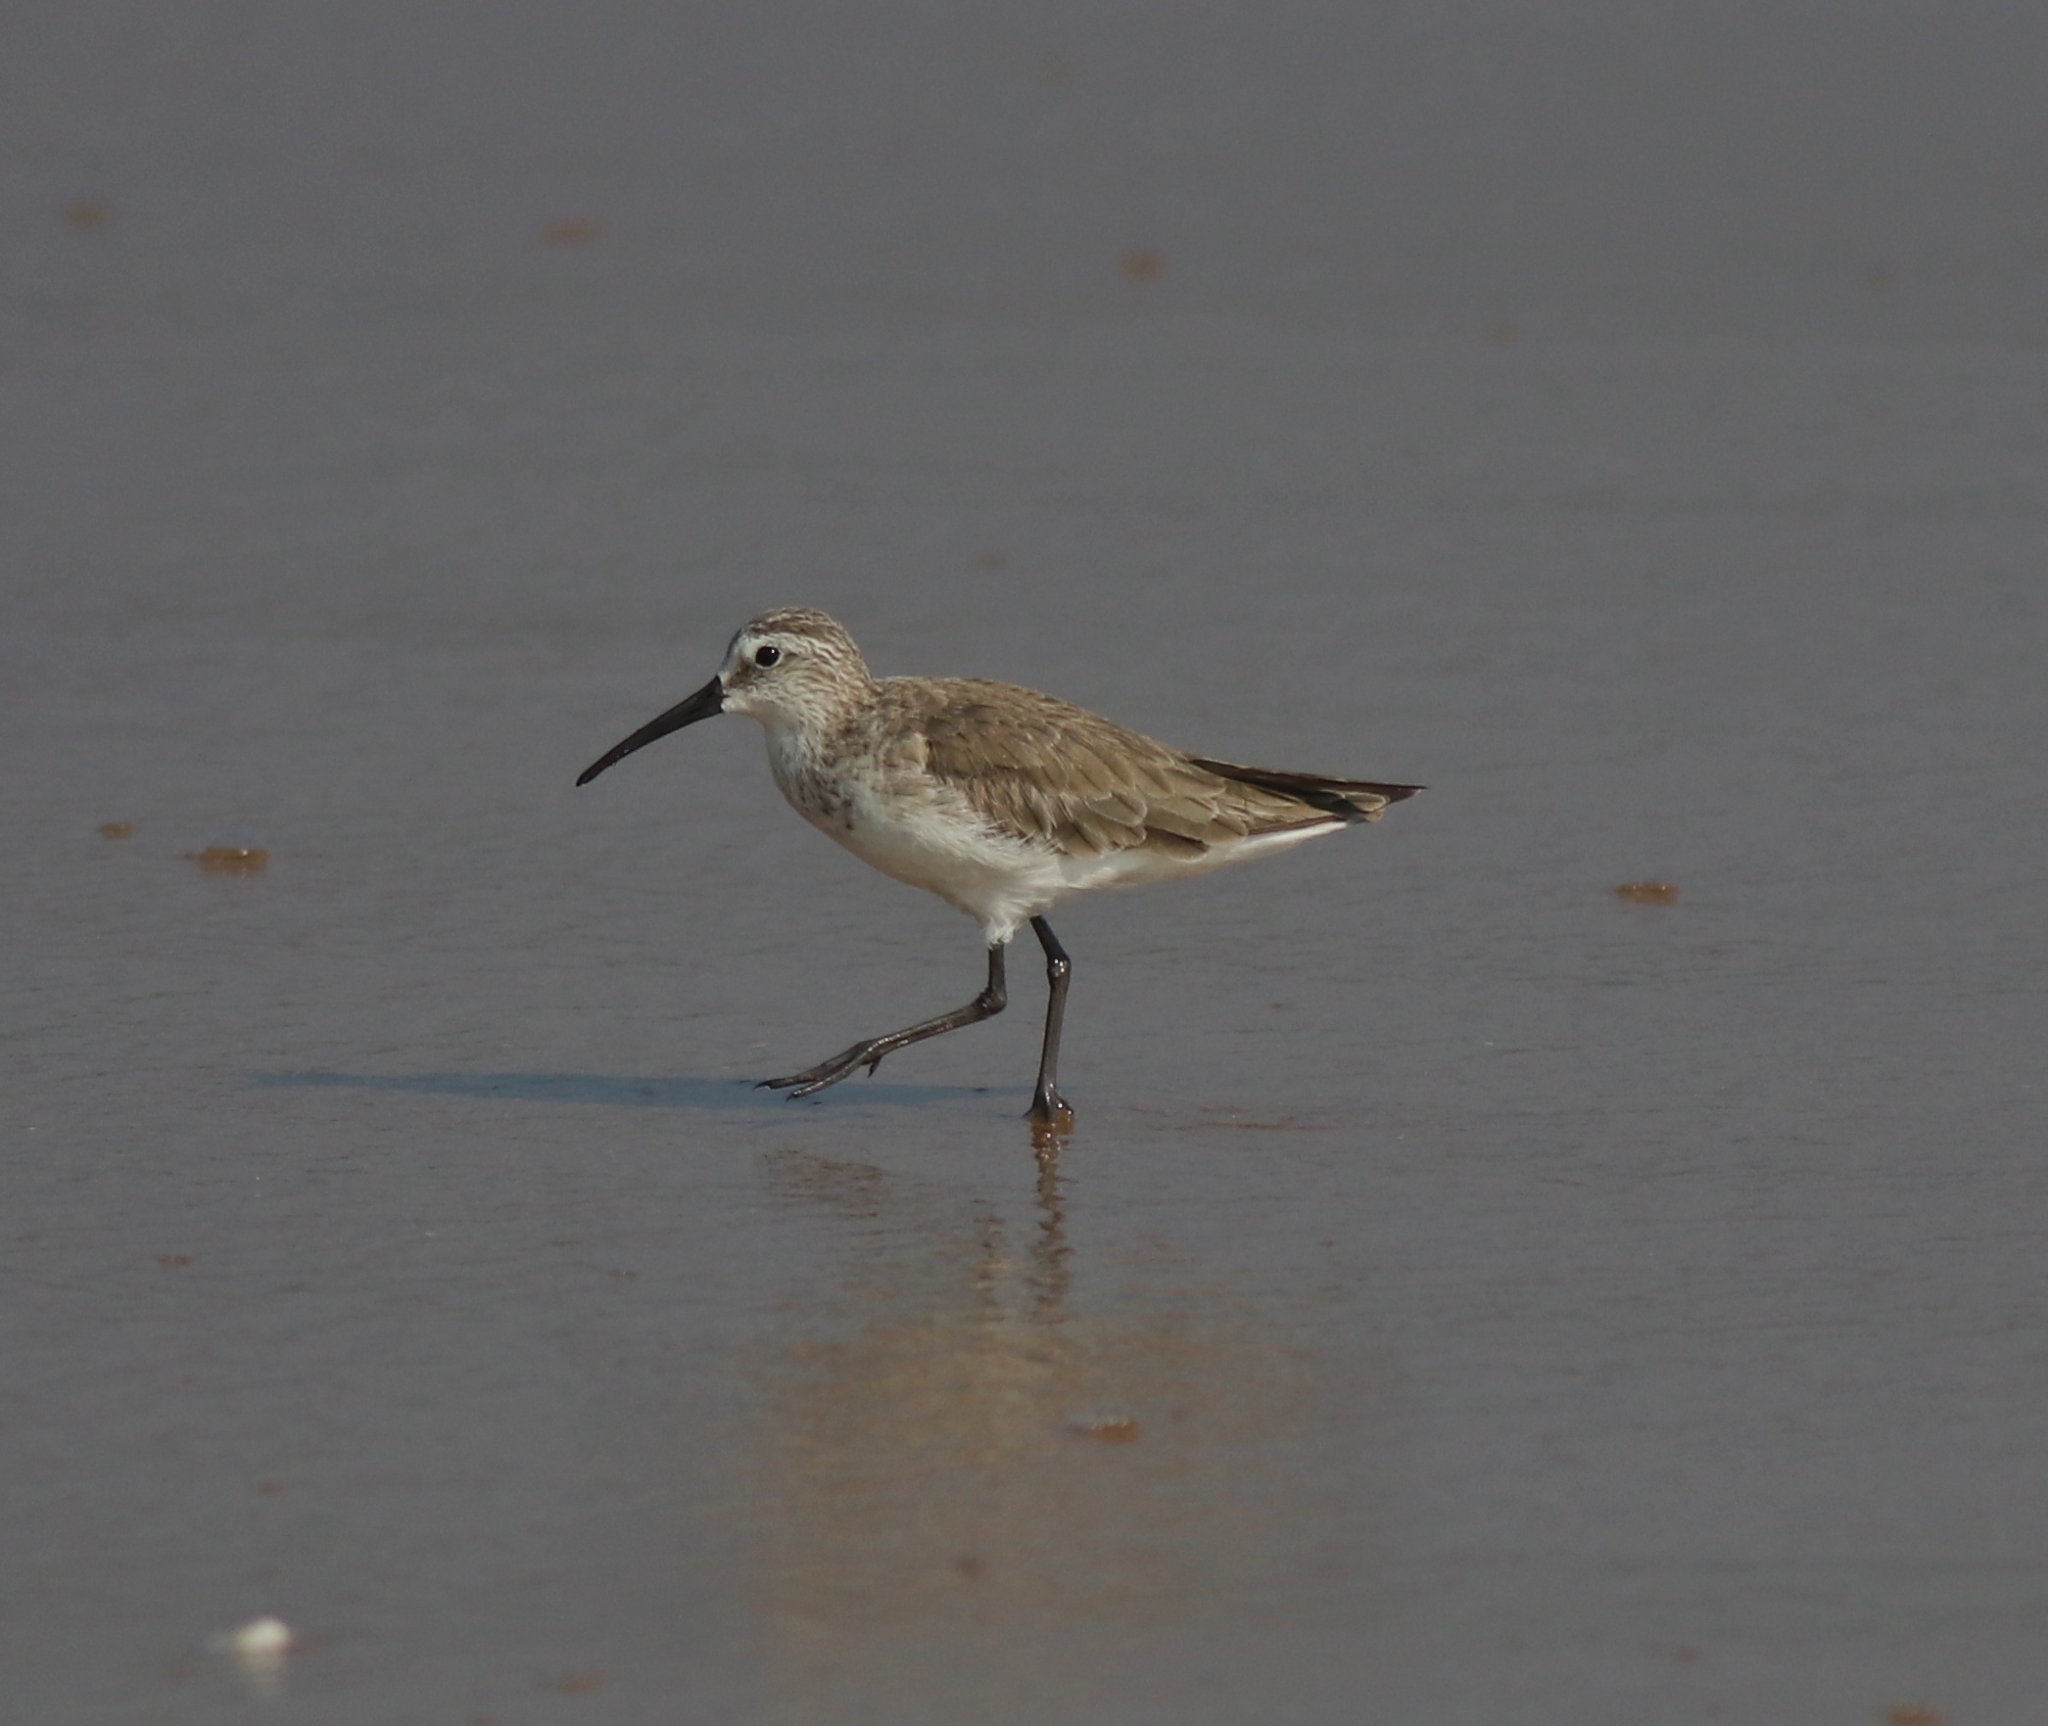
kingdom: Animalia
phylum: Chordata
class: Aves
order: Charadriiformes
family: Scolopacidae
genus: Calidris
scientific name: Calidris ferruginea
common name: Curlew sandpiper
